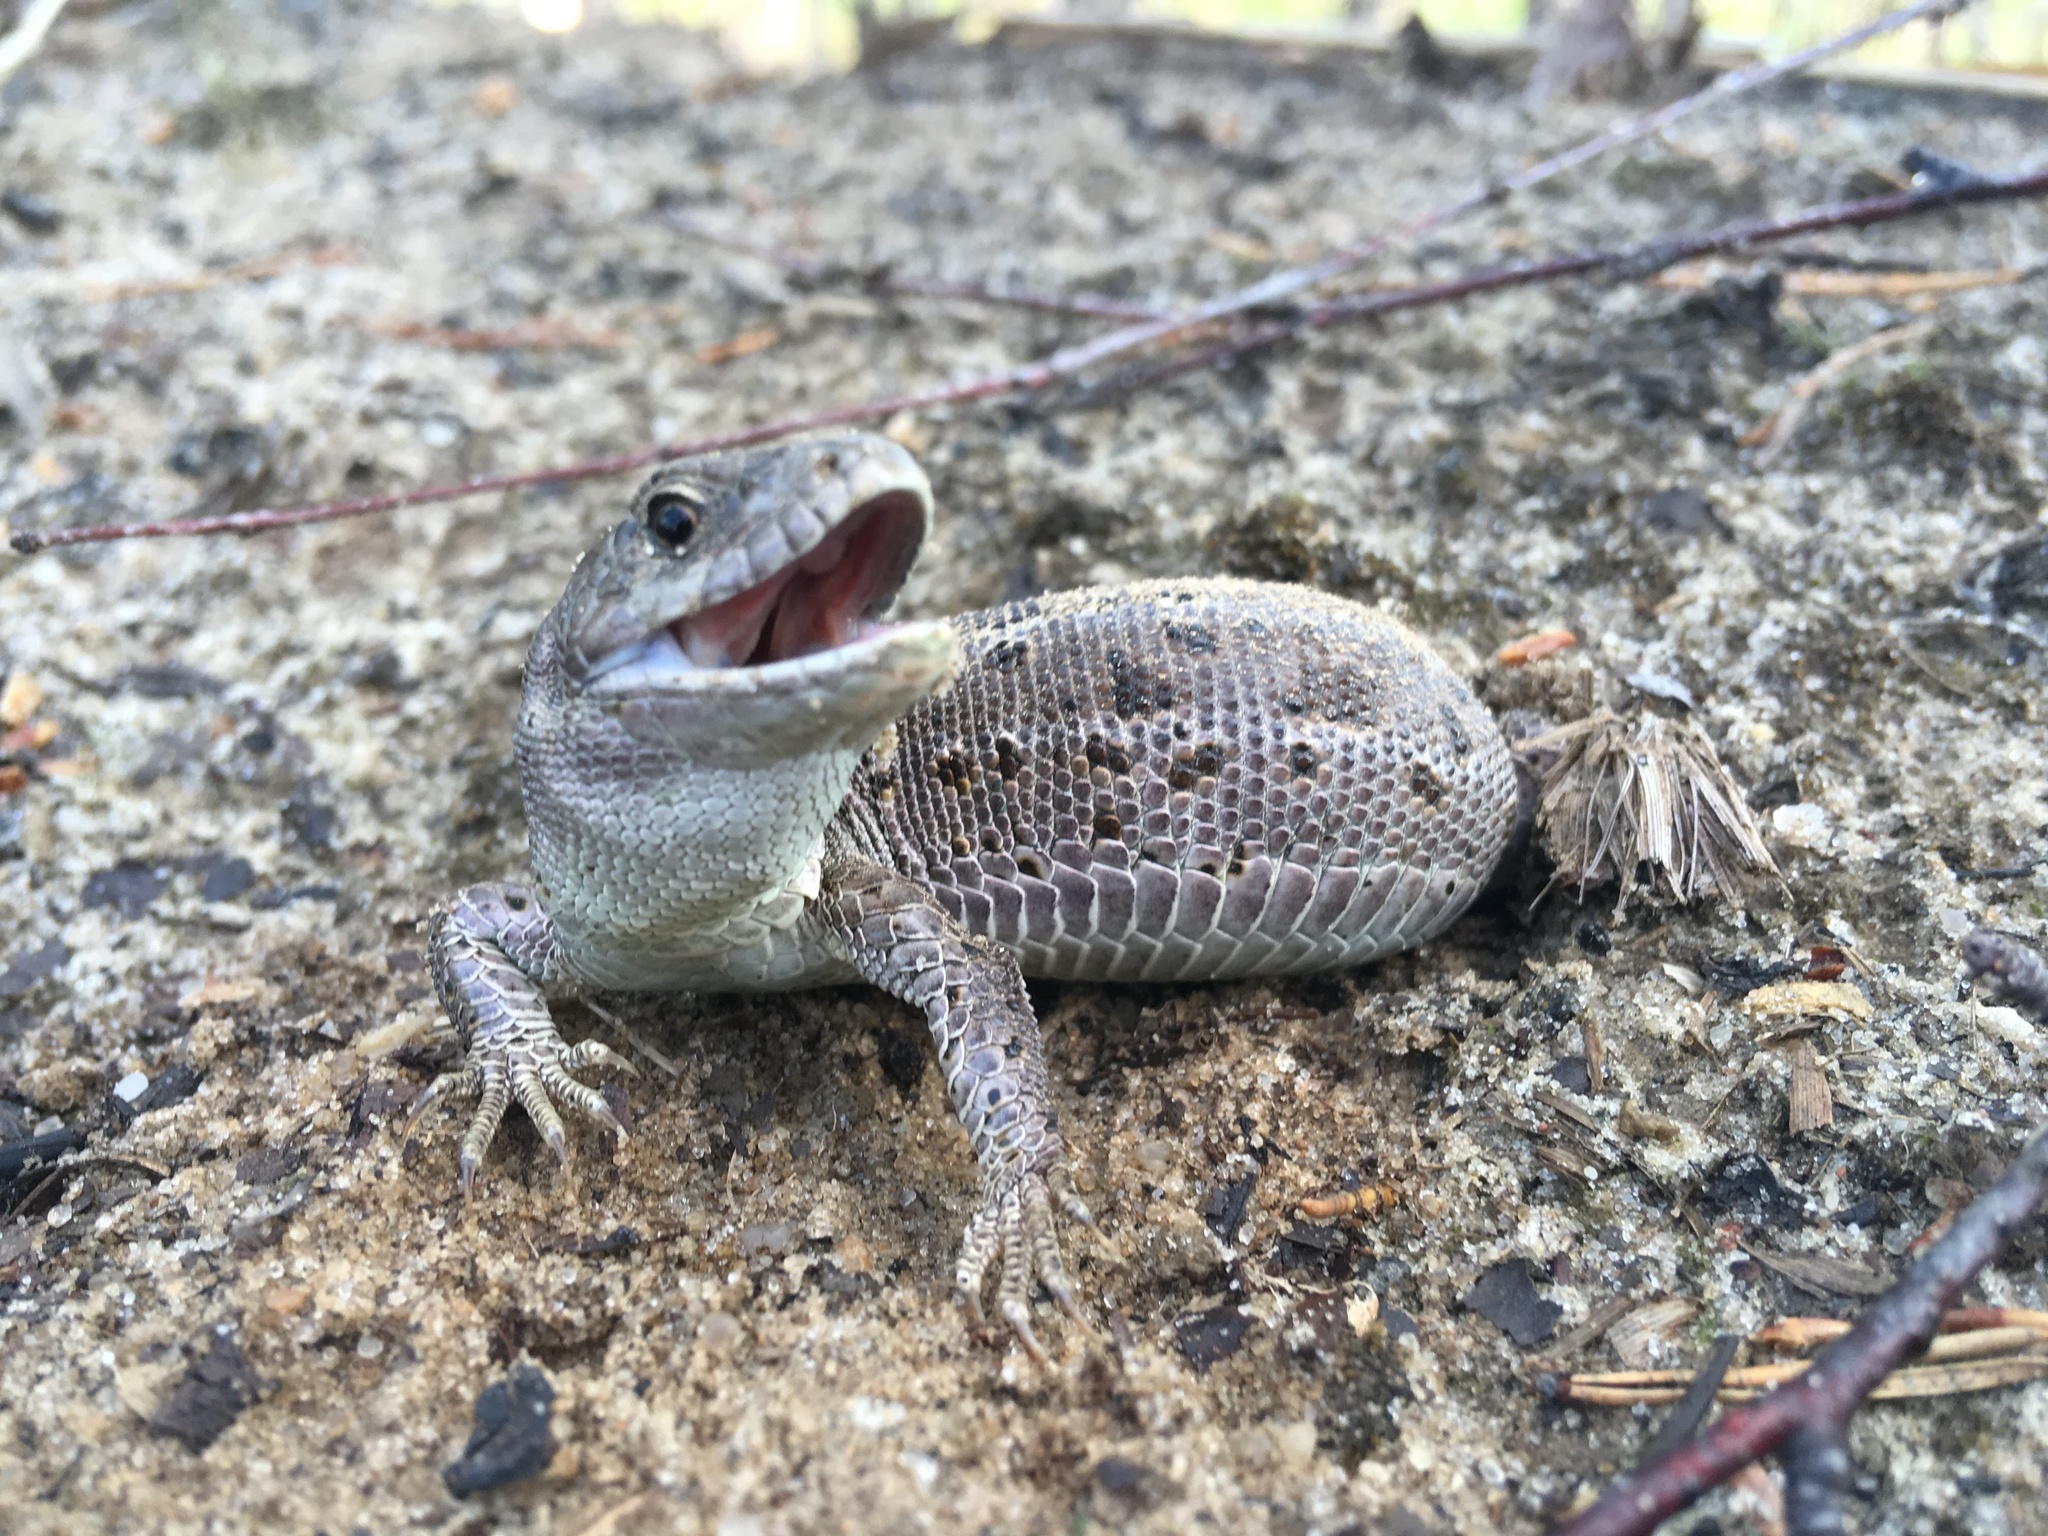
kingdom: Animalia
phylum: Chordata
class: Squamata
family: Lacertidae
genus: Lacerta
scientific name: Lacerta agilis
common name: Sand lizard
